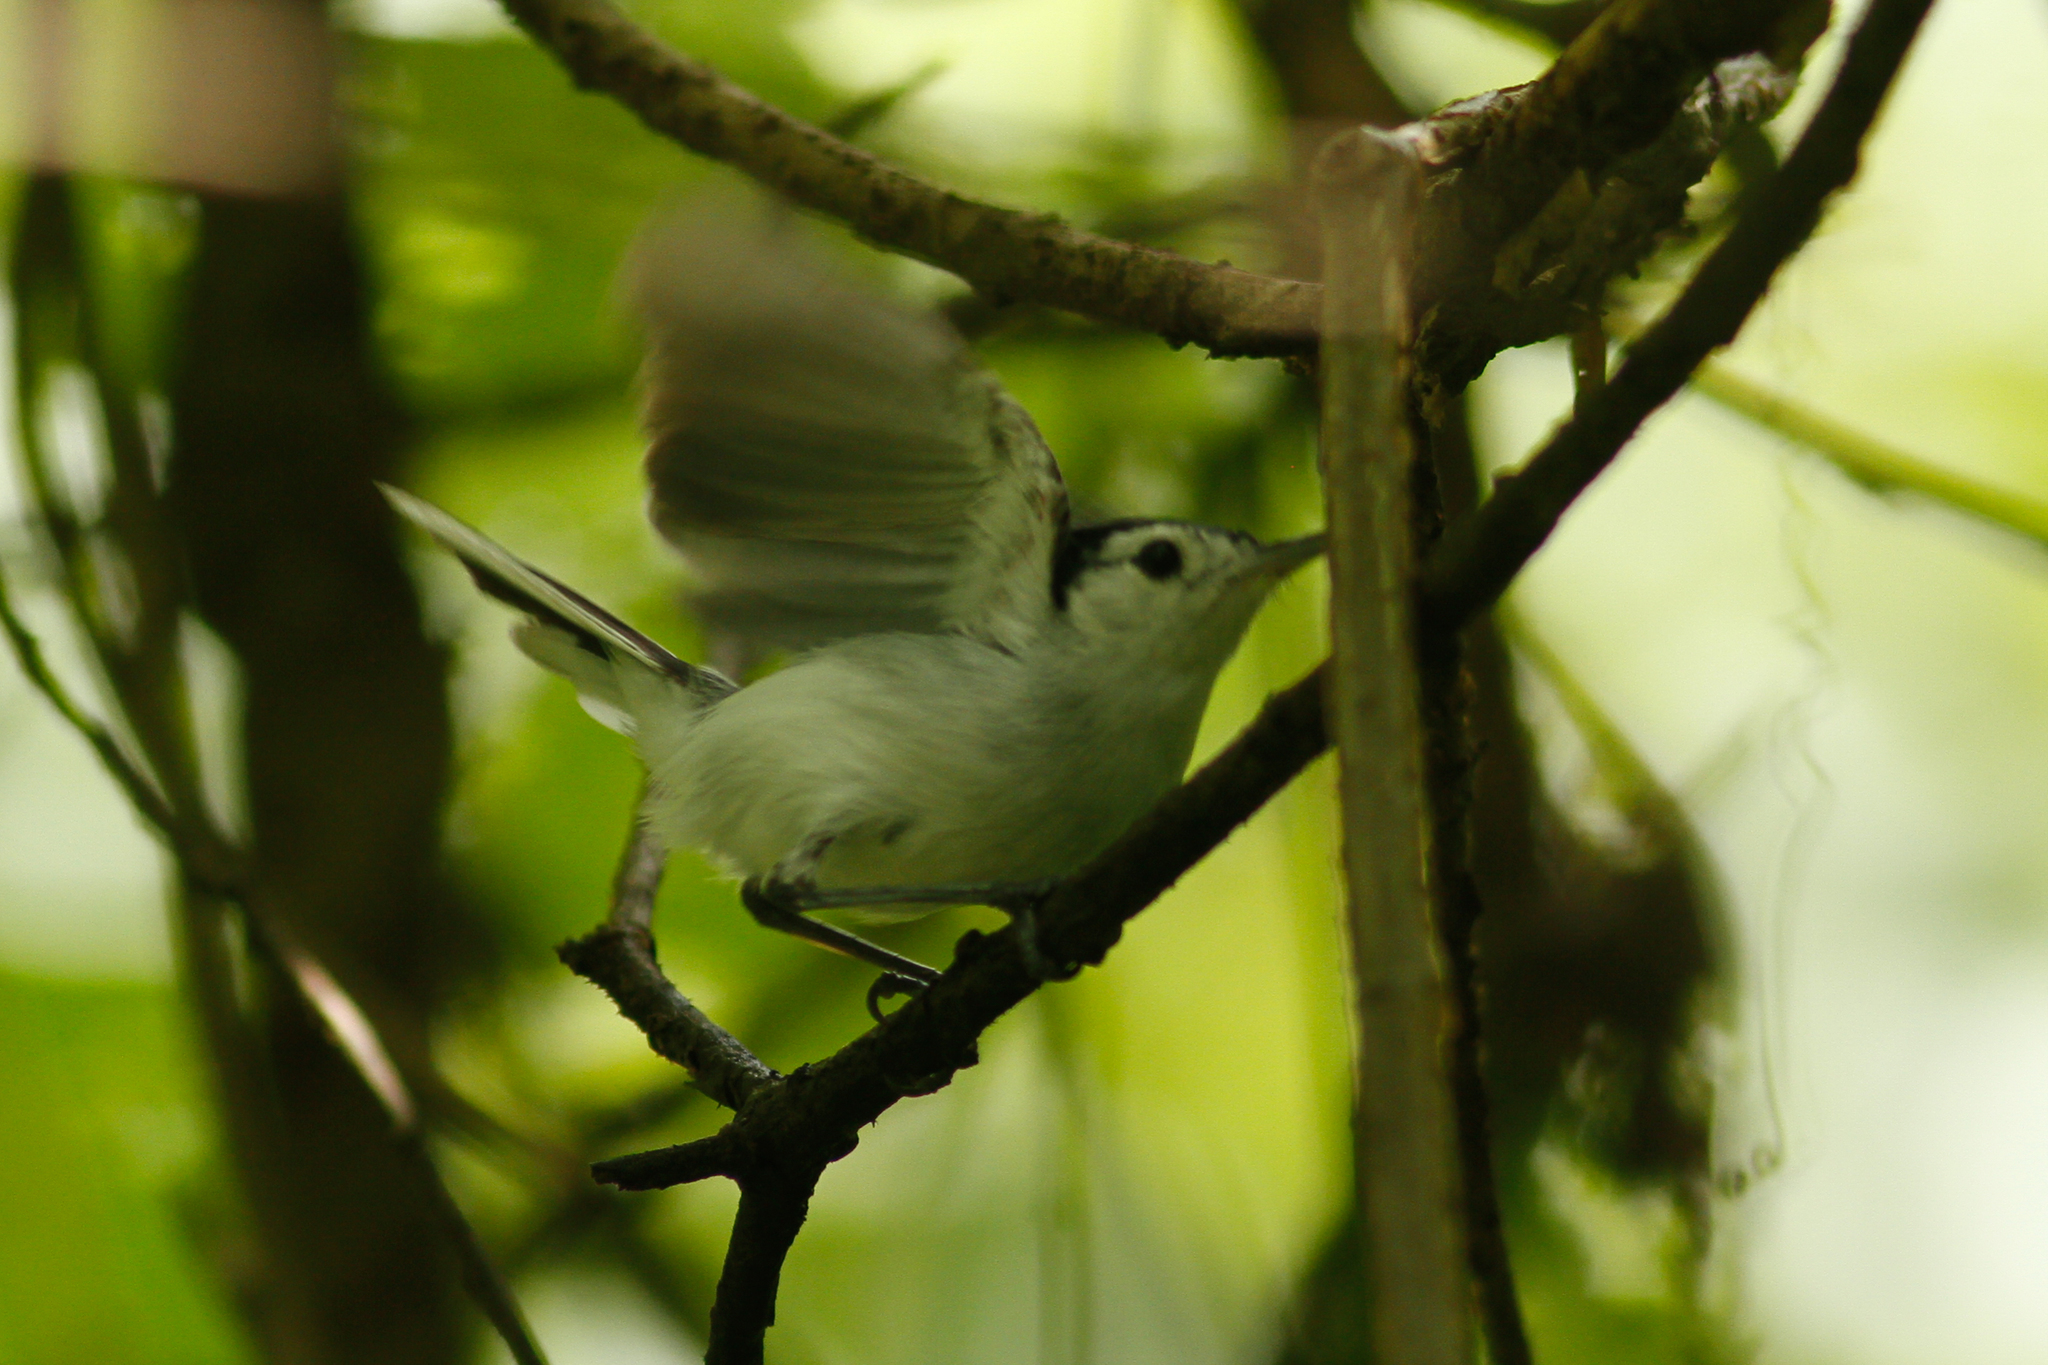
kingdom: Animalia
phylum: Chordata
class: Aves
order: Passeriformes
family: Polioptilidae
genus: Polioptila
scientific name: Polioptila plumbea
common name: Tropical gnatcatcher
